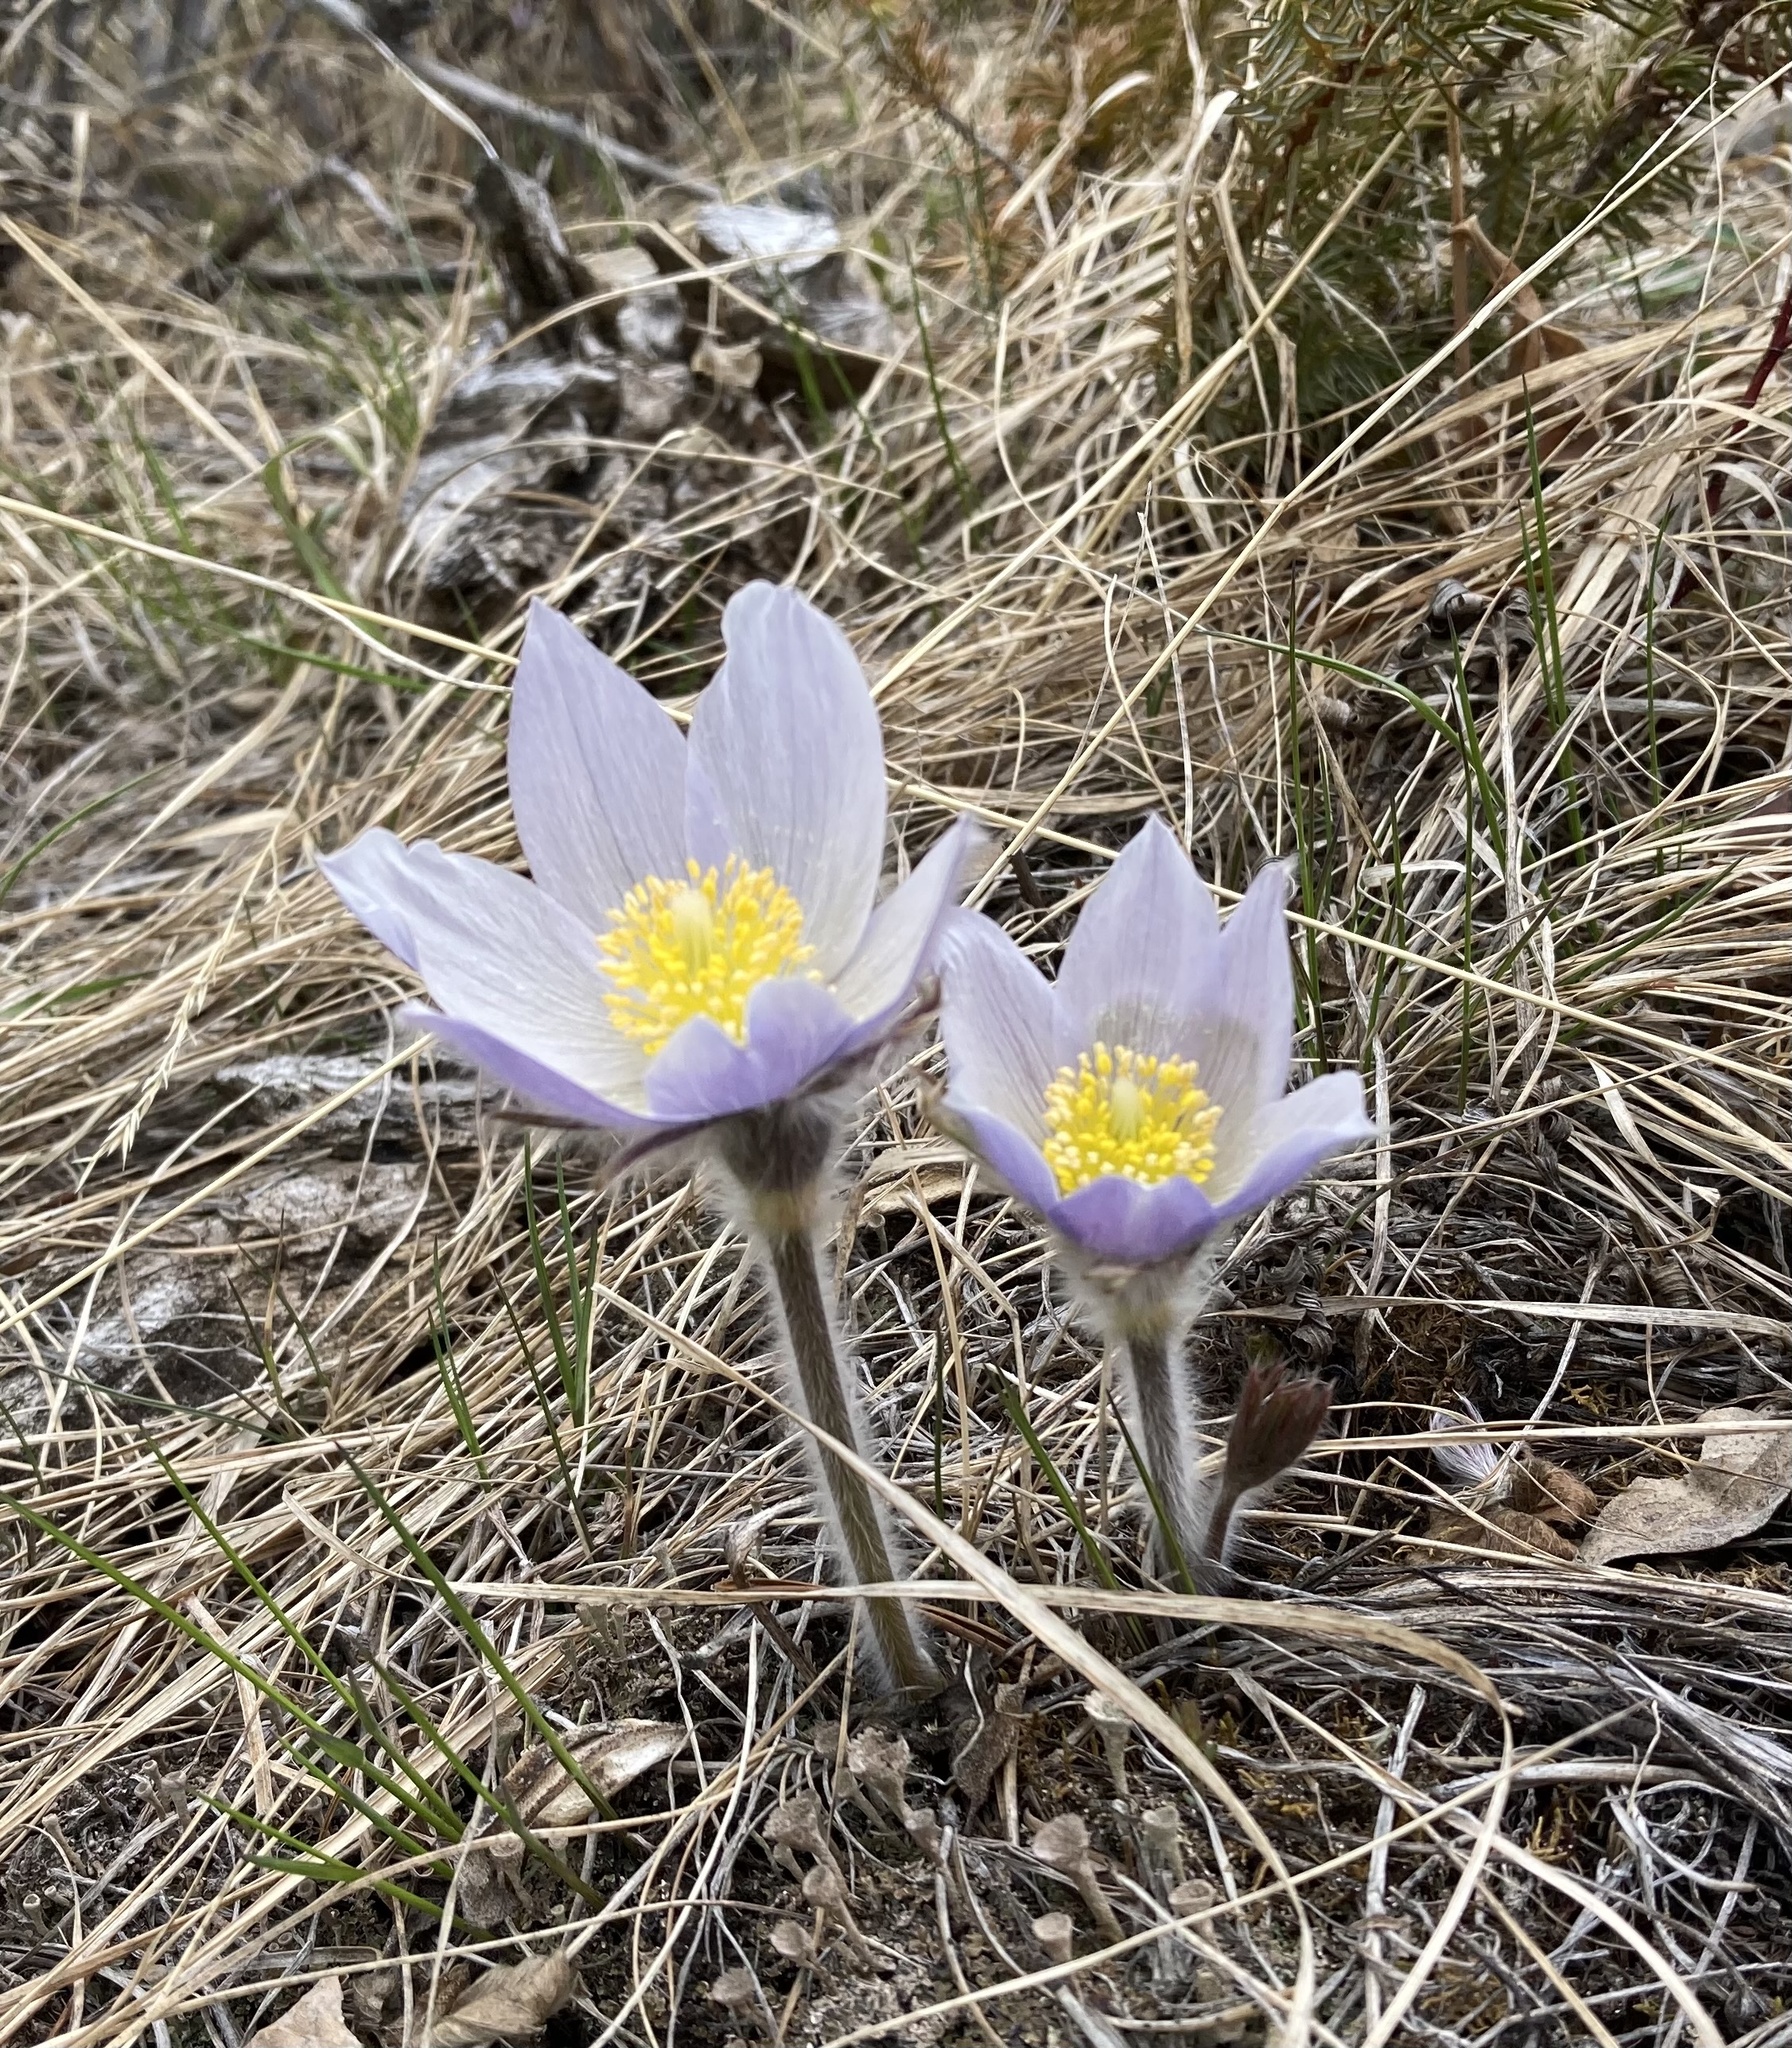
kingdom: Plantae
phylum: Tracheophyta
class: Magnoliopsida
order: Ranunculales
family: Ranunculaceae
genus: Pulsatilla
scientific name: Pulsatilla nuttalliana
